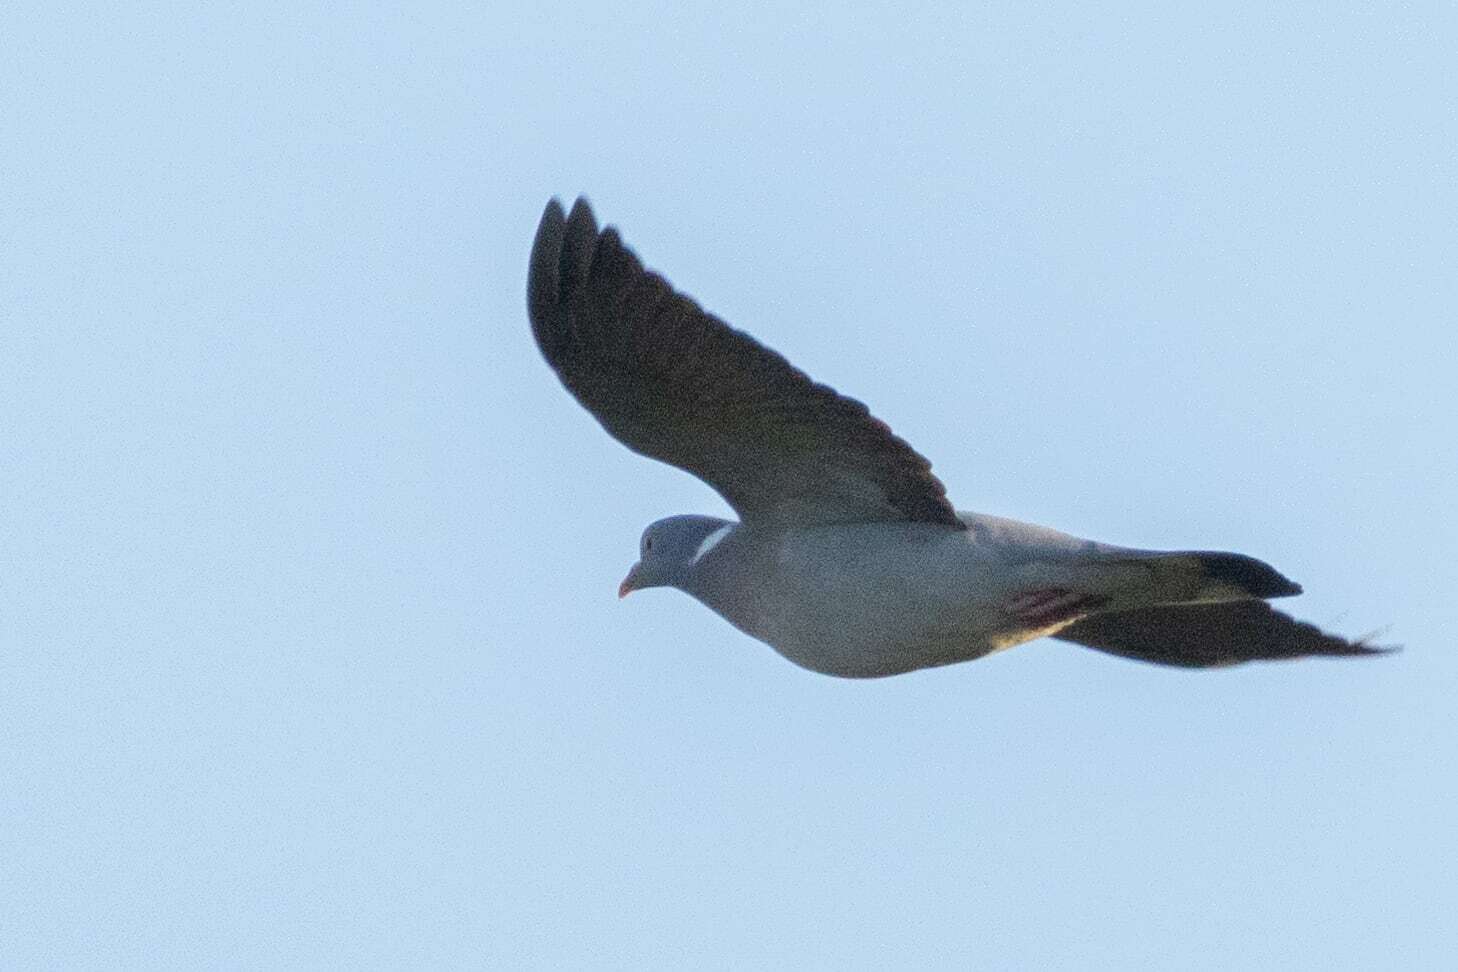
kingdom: Animalia
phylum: Chordata
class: Aves
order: Columbiformes
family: Columbidae
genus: Columba
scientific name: Columba palumbus
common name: Common wood pigeon
